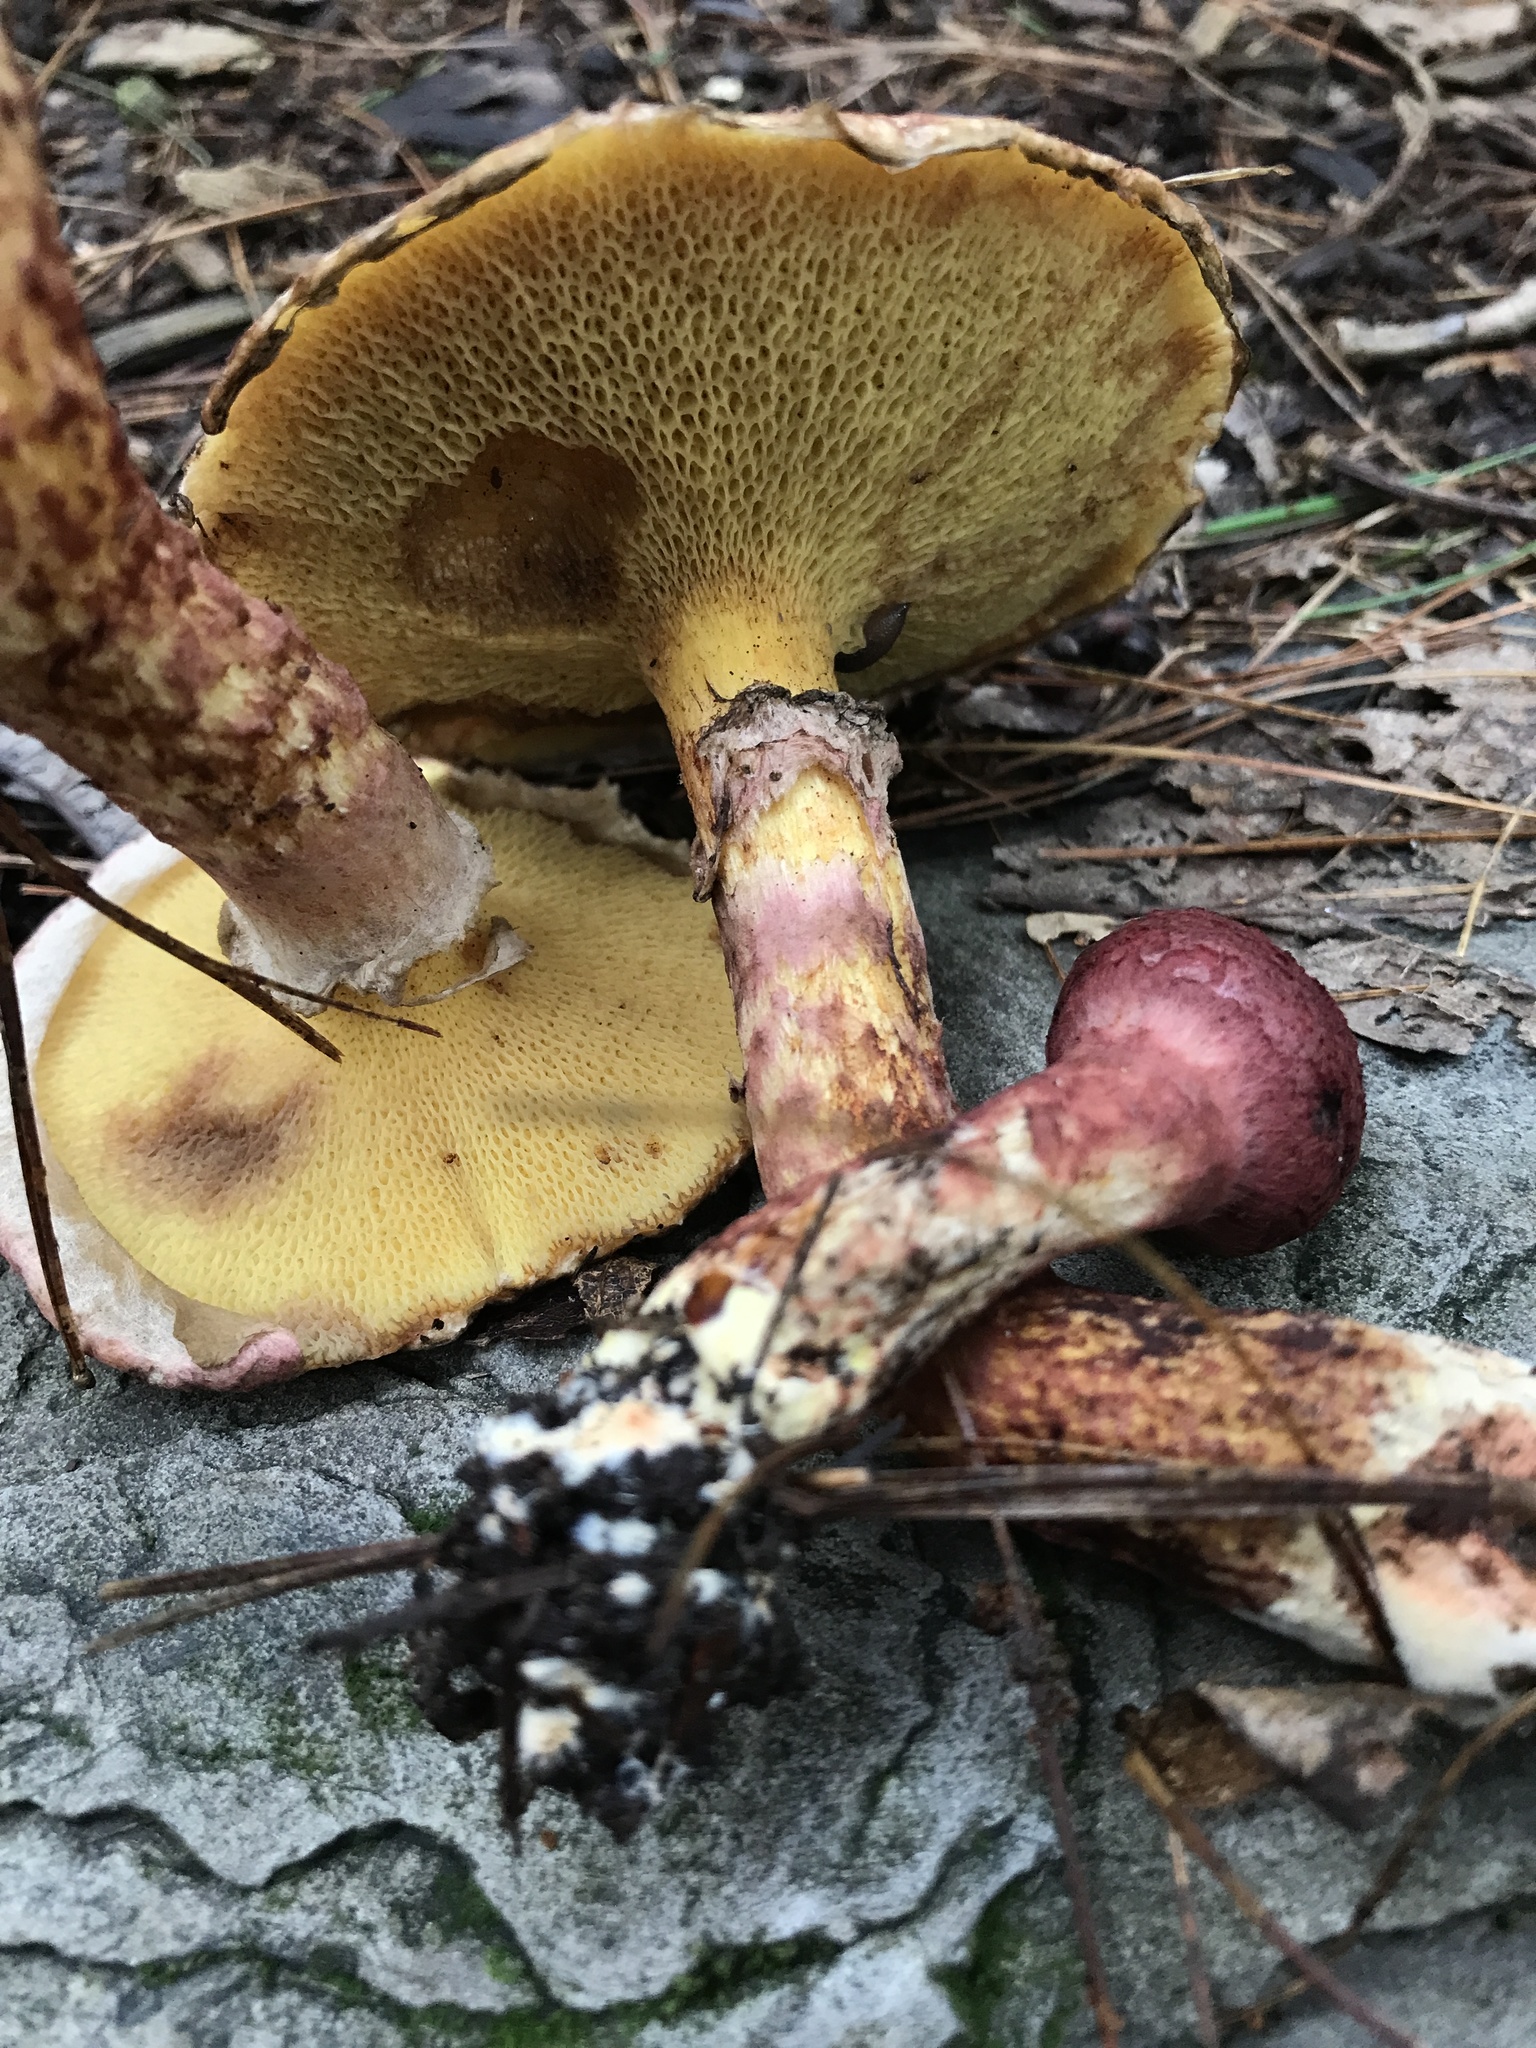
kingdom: Fungi
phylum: Basidiomycota
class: Agaricomycetes
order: Boletales
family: Suillaceae
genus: Suillus
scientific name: Suillus spraguei
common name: Painted suillus
